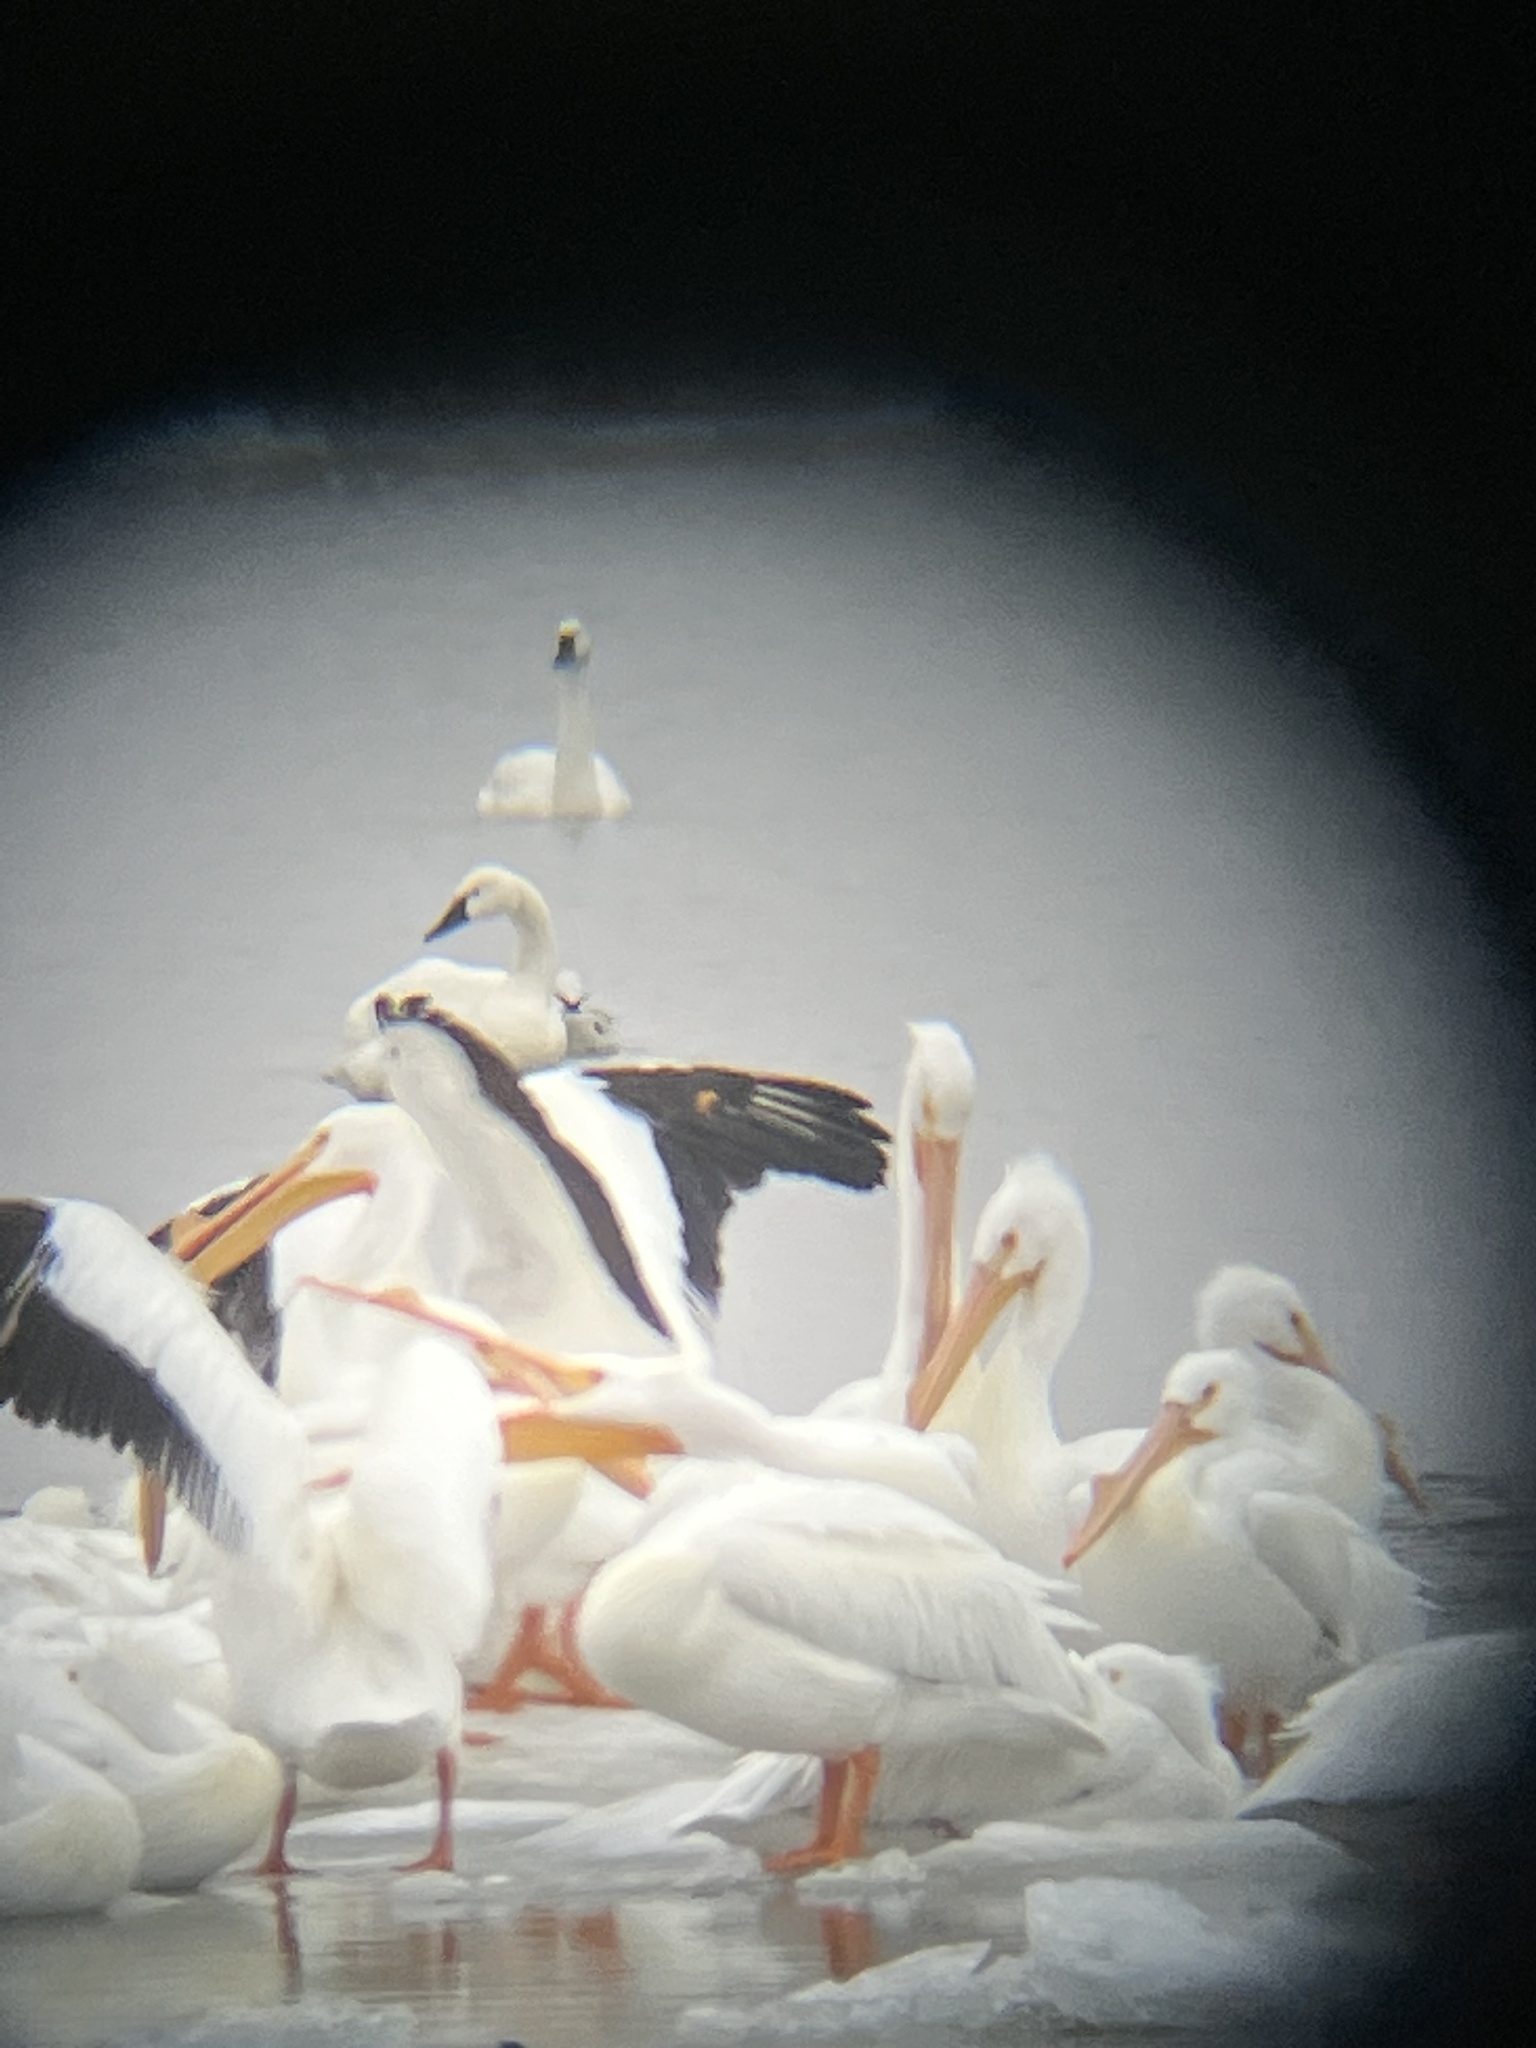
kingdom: Animalia
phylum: Chordata
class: Aves
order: Pelecaniformes
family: Pelecanidae
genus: Pelecanus
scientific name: Pelecanus erythrorhynchos
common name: American white pelican
